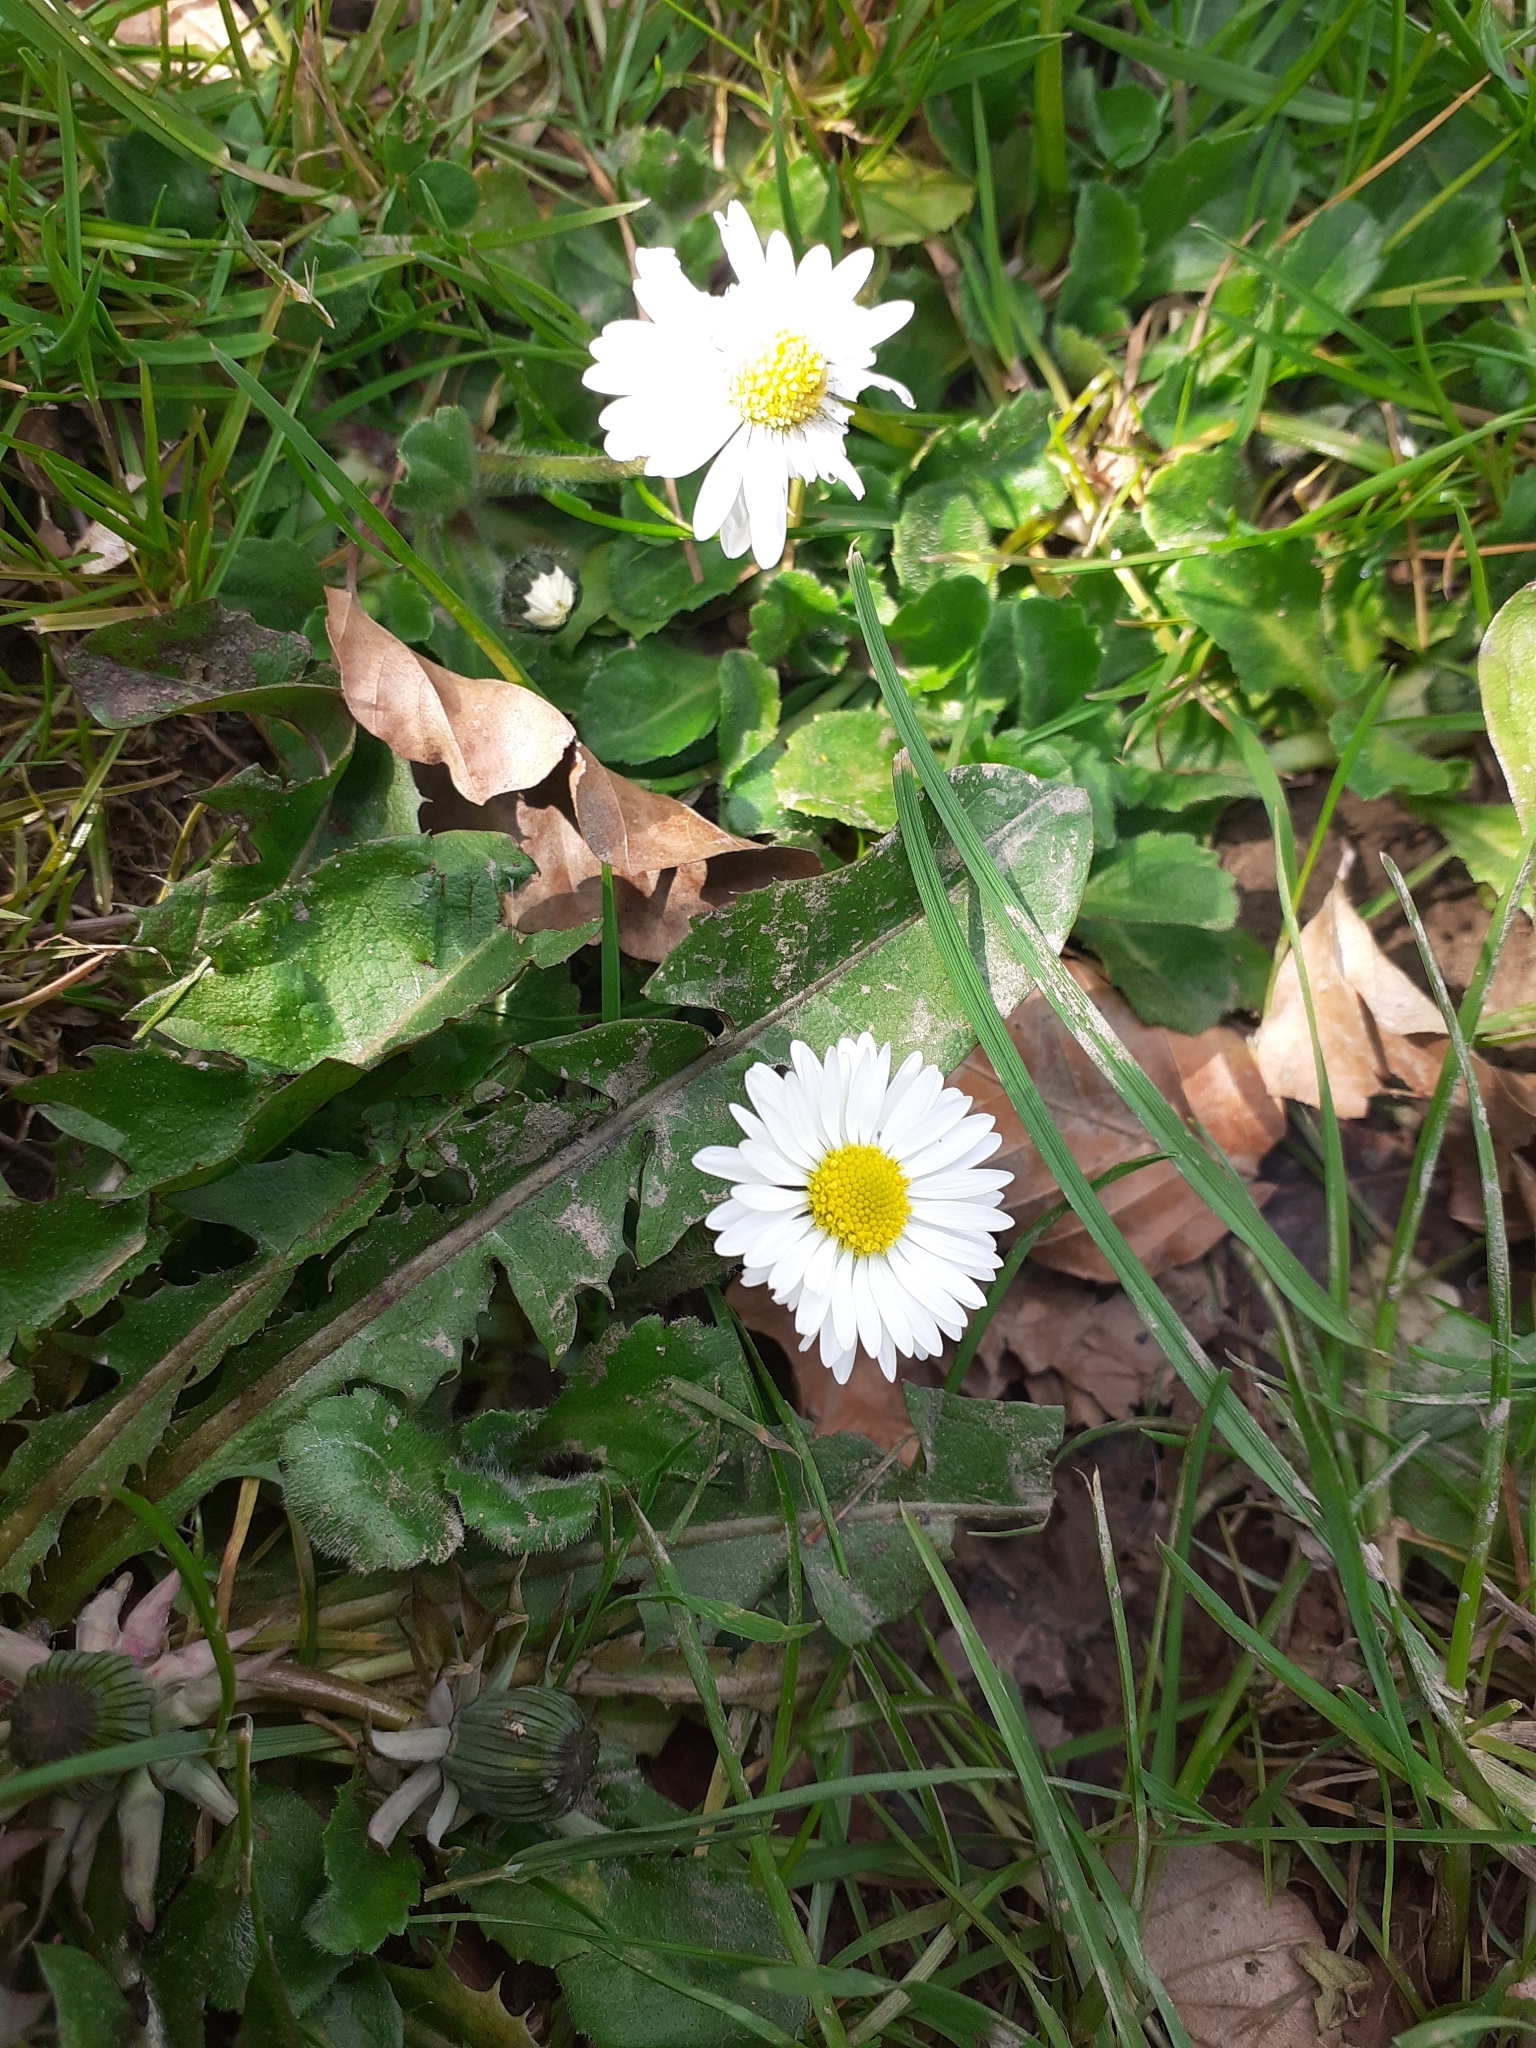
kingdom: Plantae
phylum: Tracheophyta
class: Magnoliopsida
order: Asterales
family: Asteraceae
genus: Bellis
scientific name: Bellis perennis
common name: Lawndaisy
